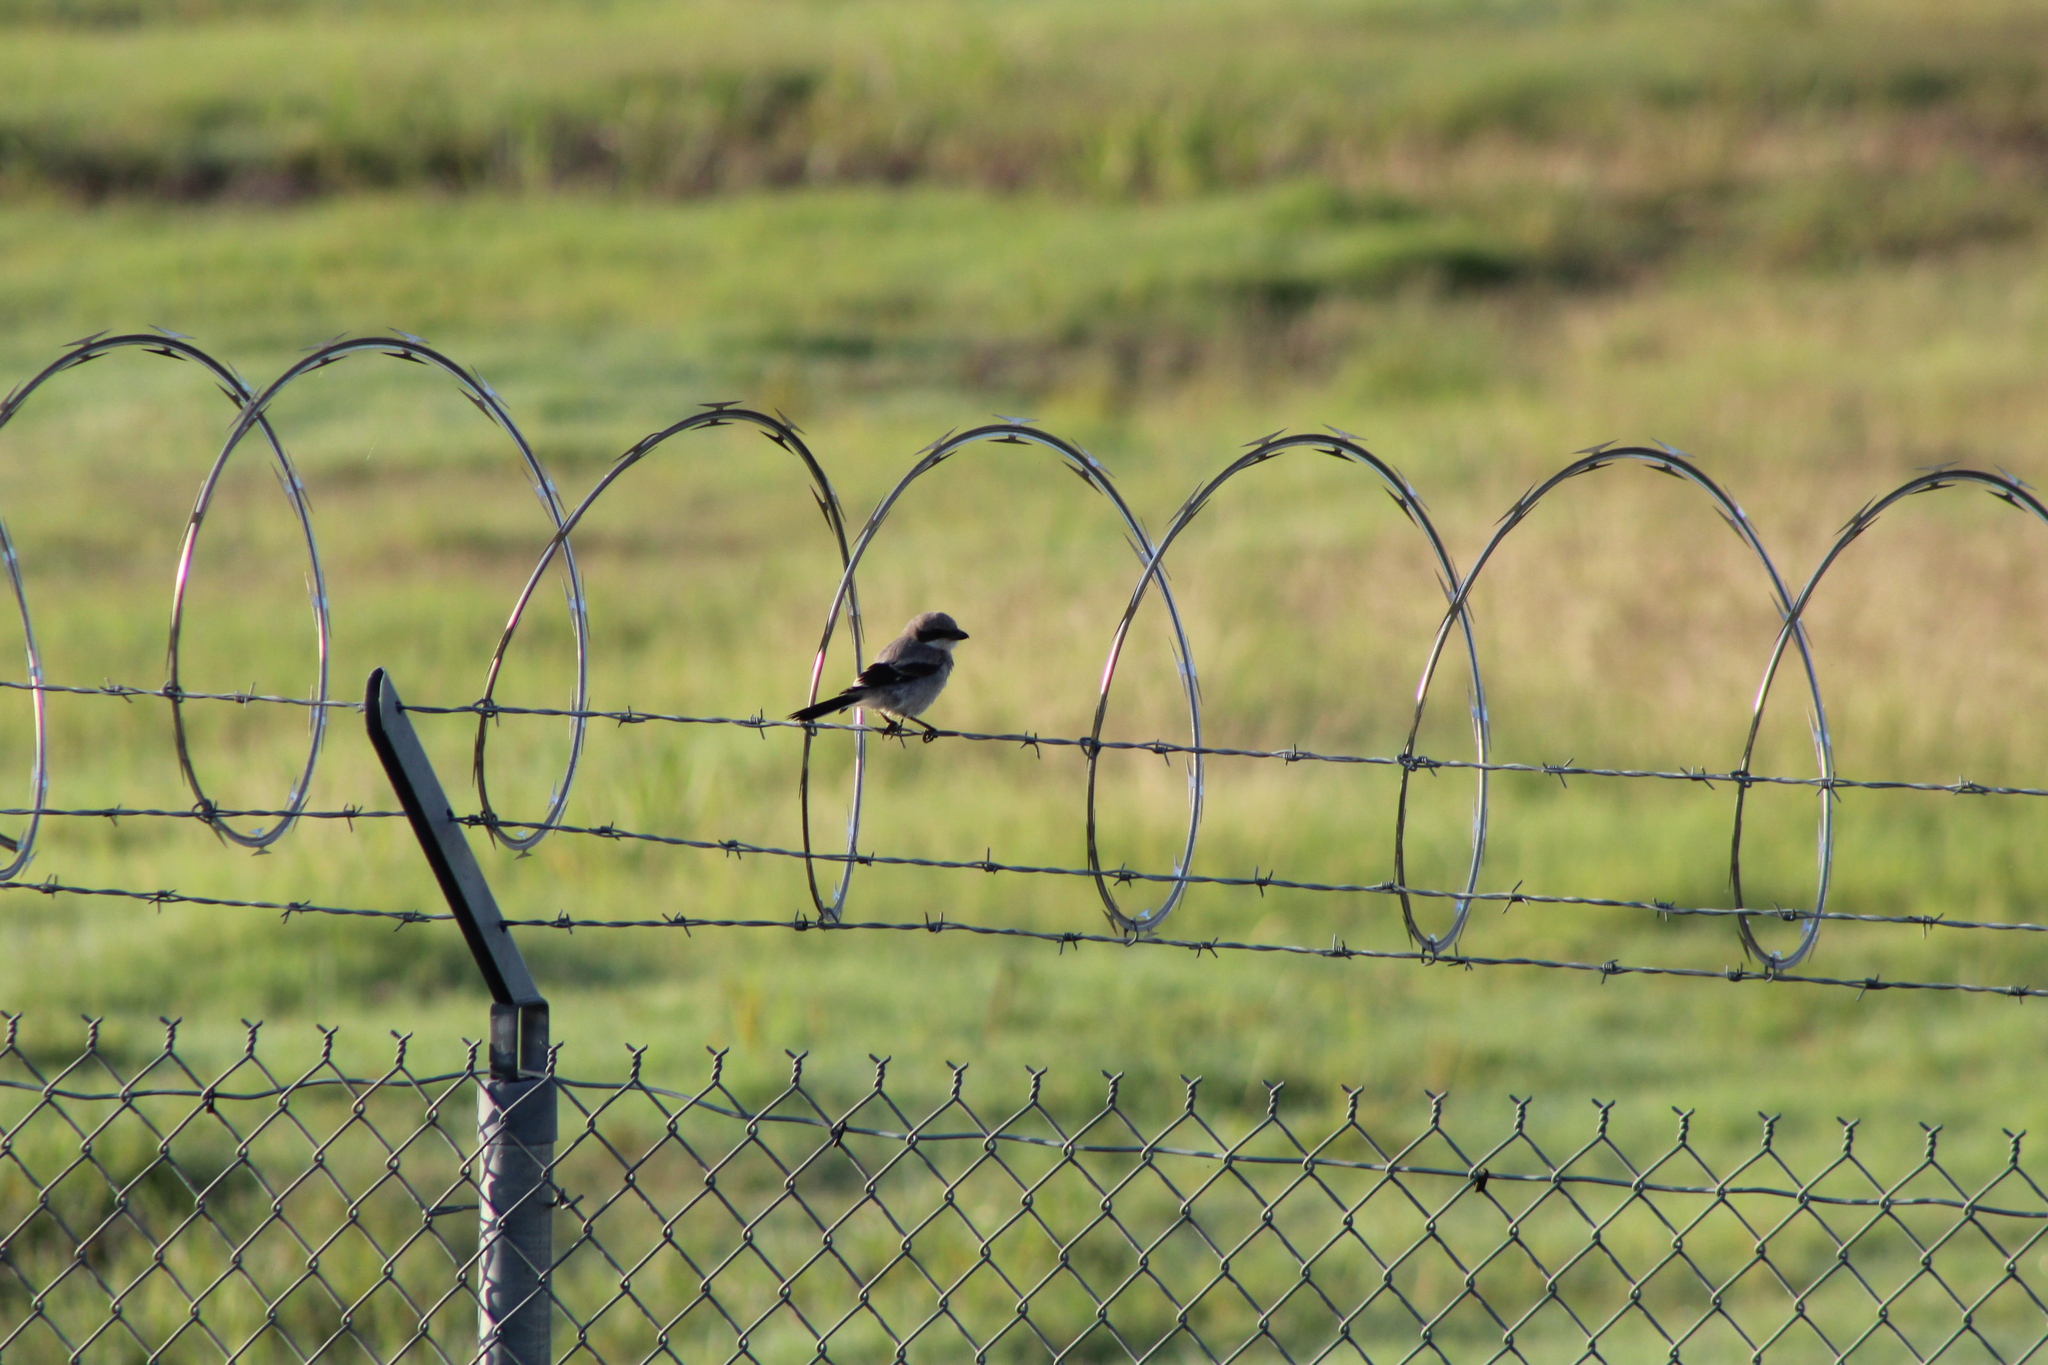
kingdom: Animalia
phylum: Chordata
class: Aves
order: Passeriformes
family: Laniidae
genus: Lanius
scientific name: Lanius ludovicianus
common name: Loggerhead shrike
